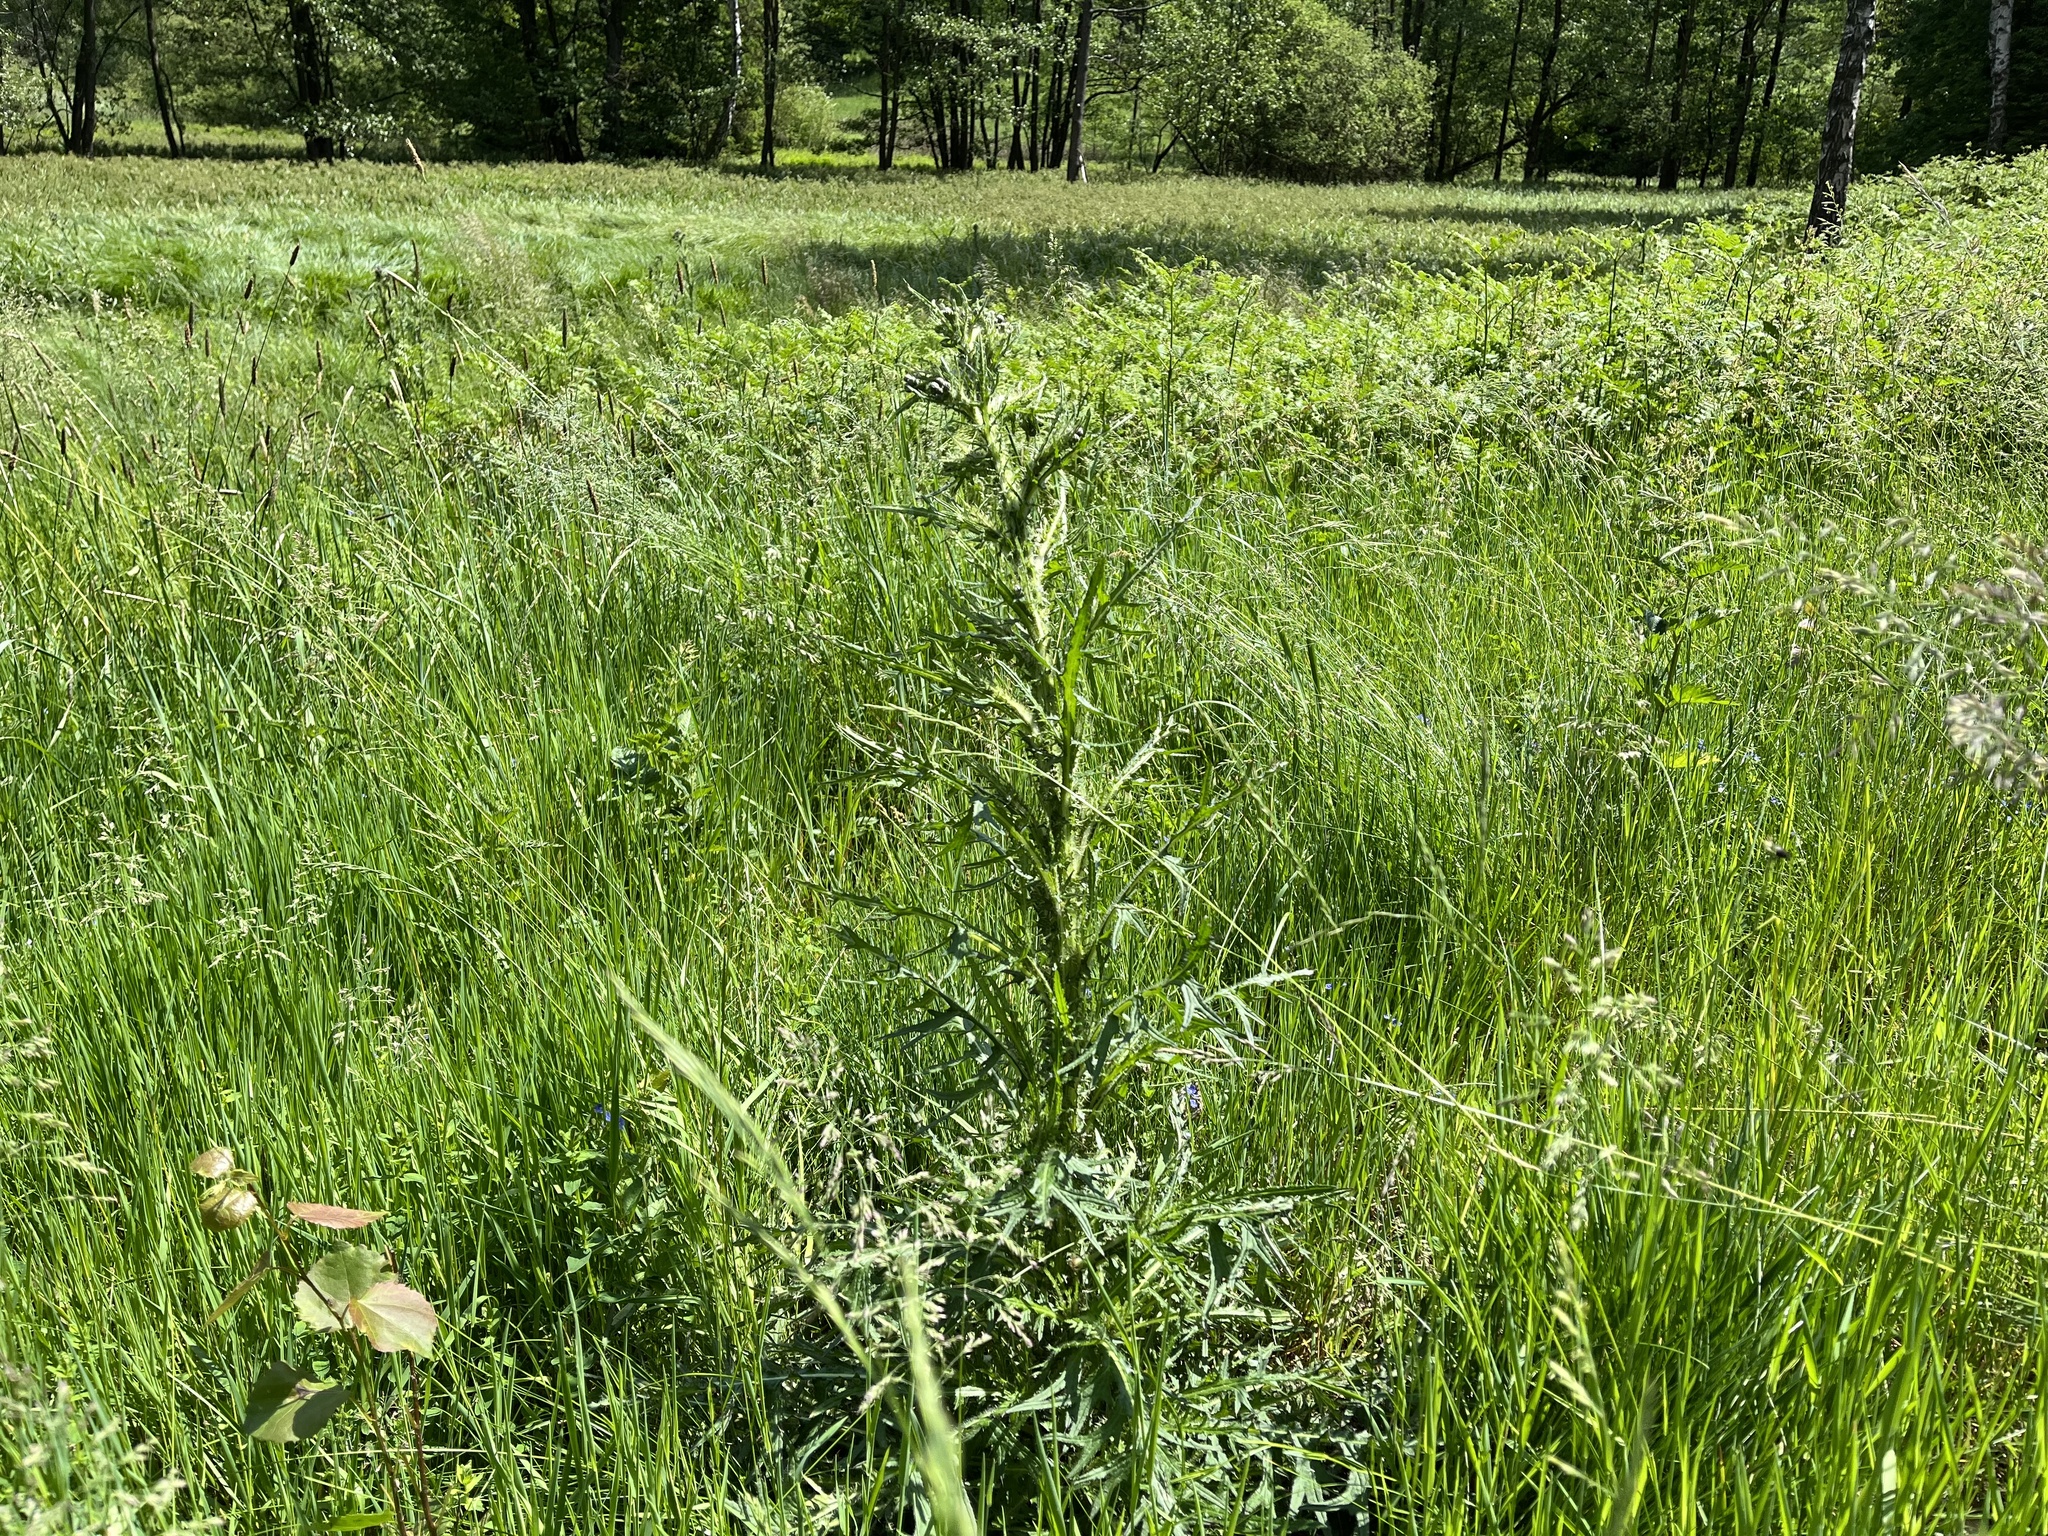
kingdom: Plantae
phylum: Tracheophyta
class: Magnoliopsida
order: Asterales
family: Asteraceae
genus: Cirsium
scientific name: Cirsium palustre
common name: Marsh thistle
